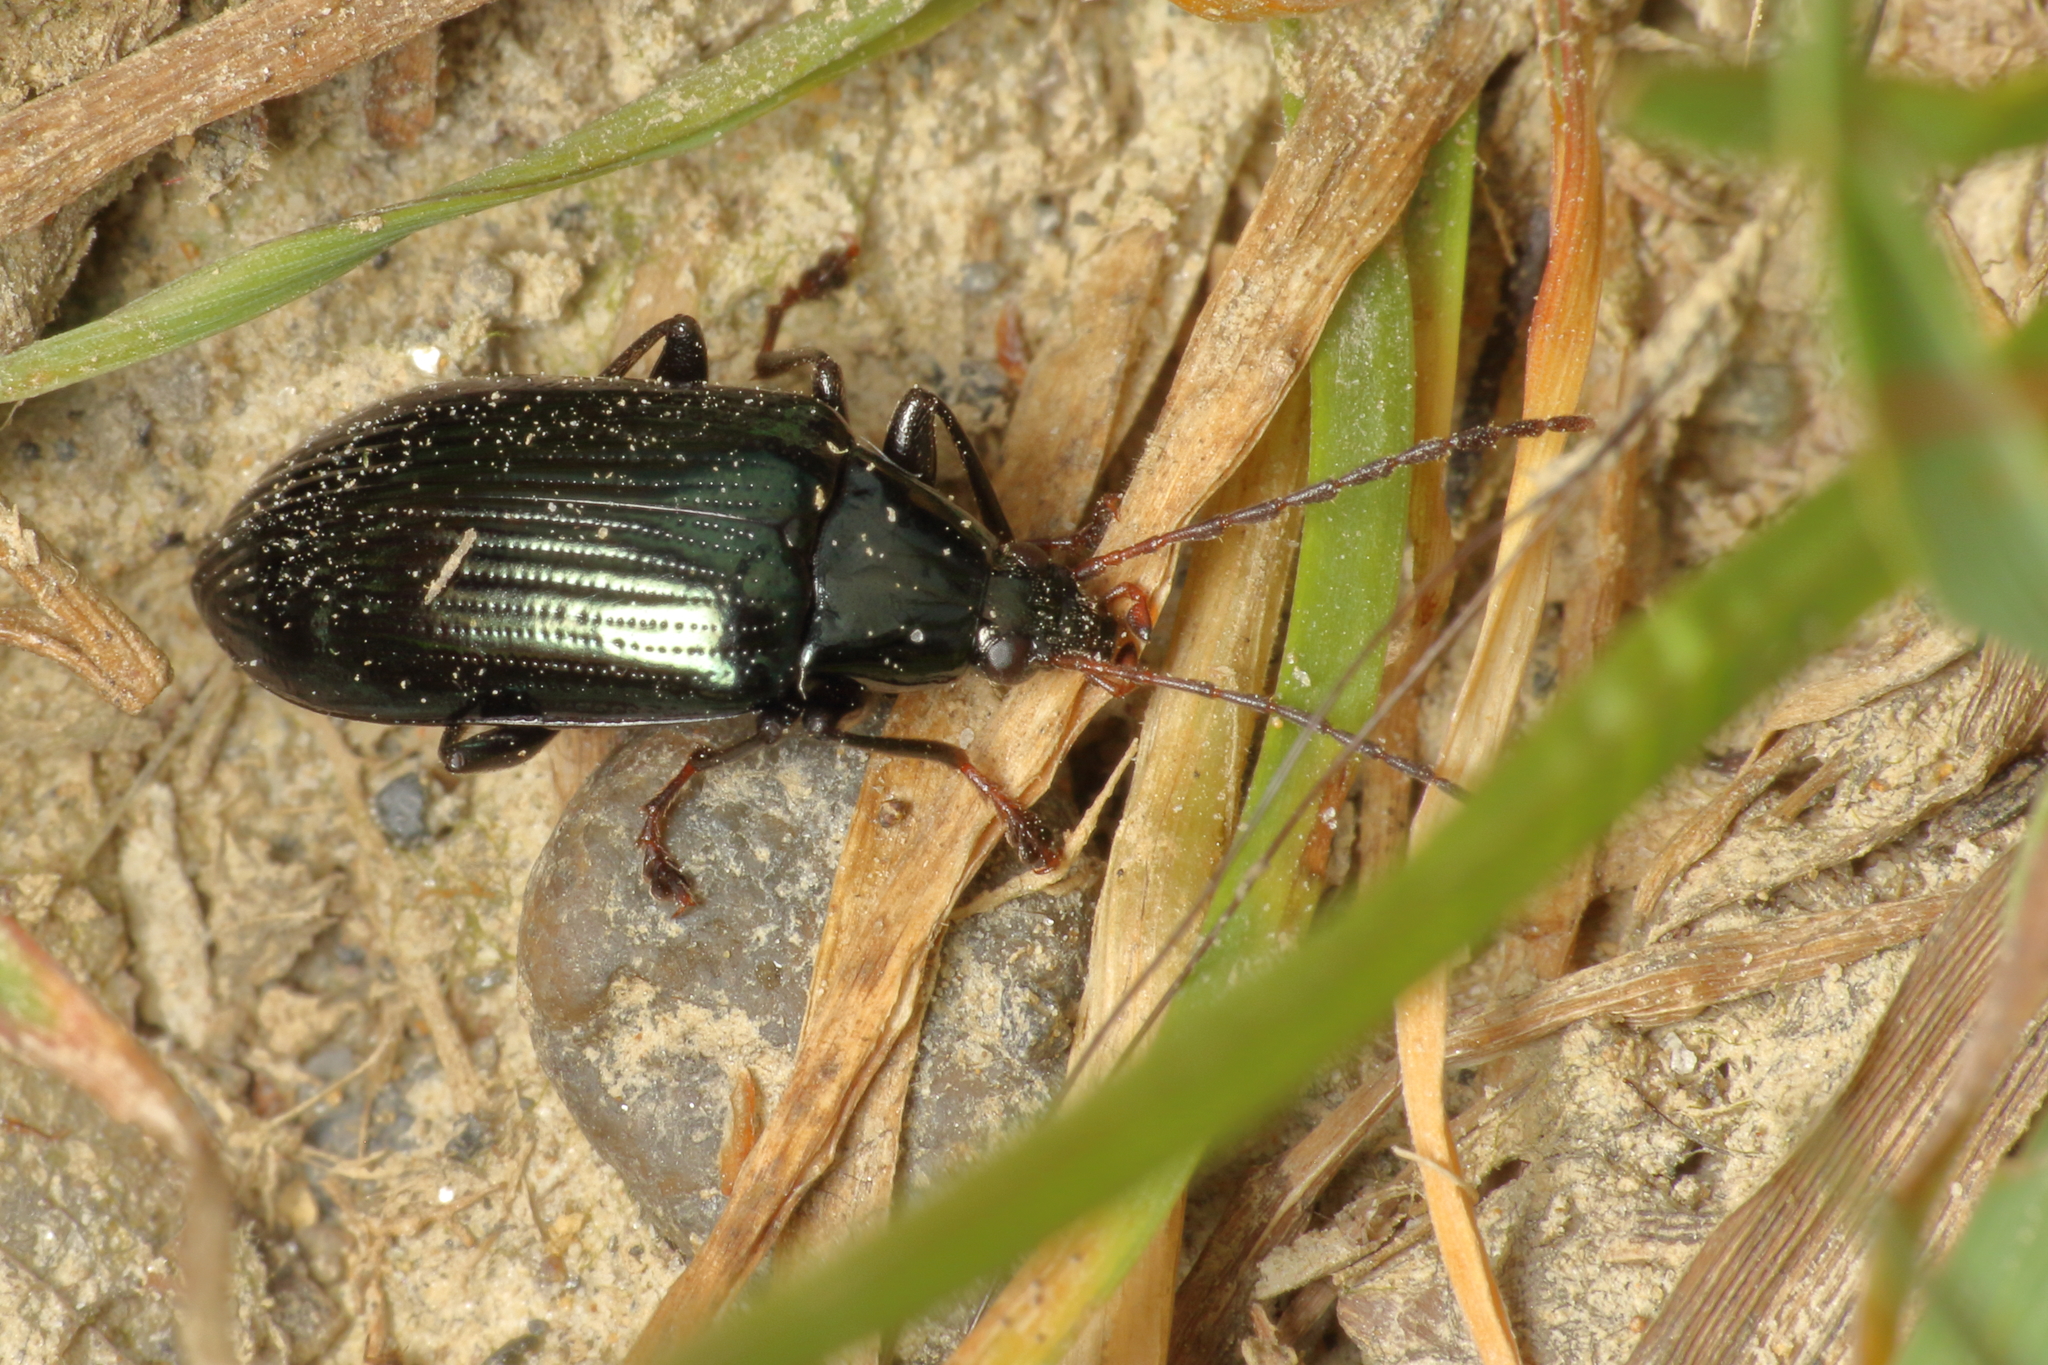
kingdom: Animalia
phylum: Arthropoda
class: Insecta
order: Coleoptera
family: Tenebrionidae
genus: Tanychilus
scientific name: Tanychilus
